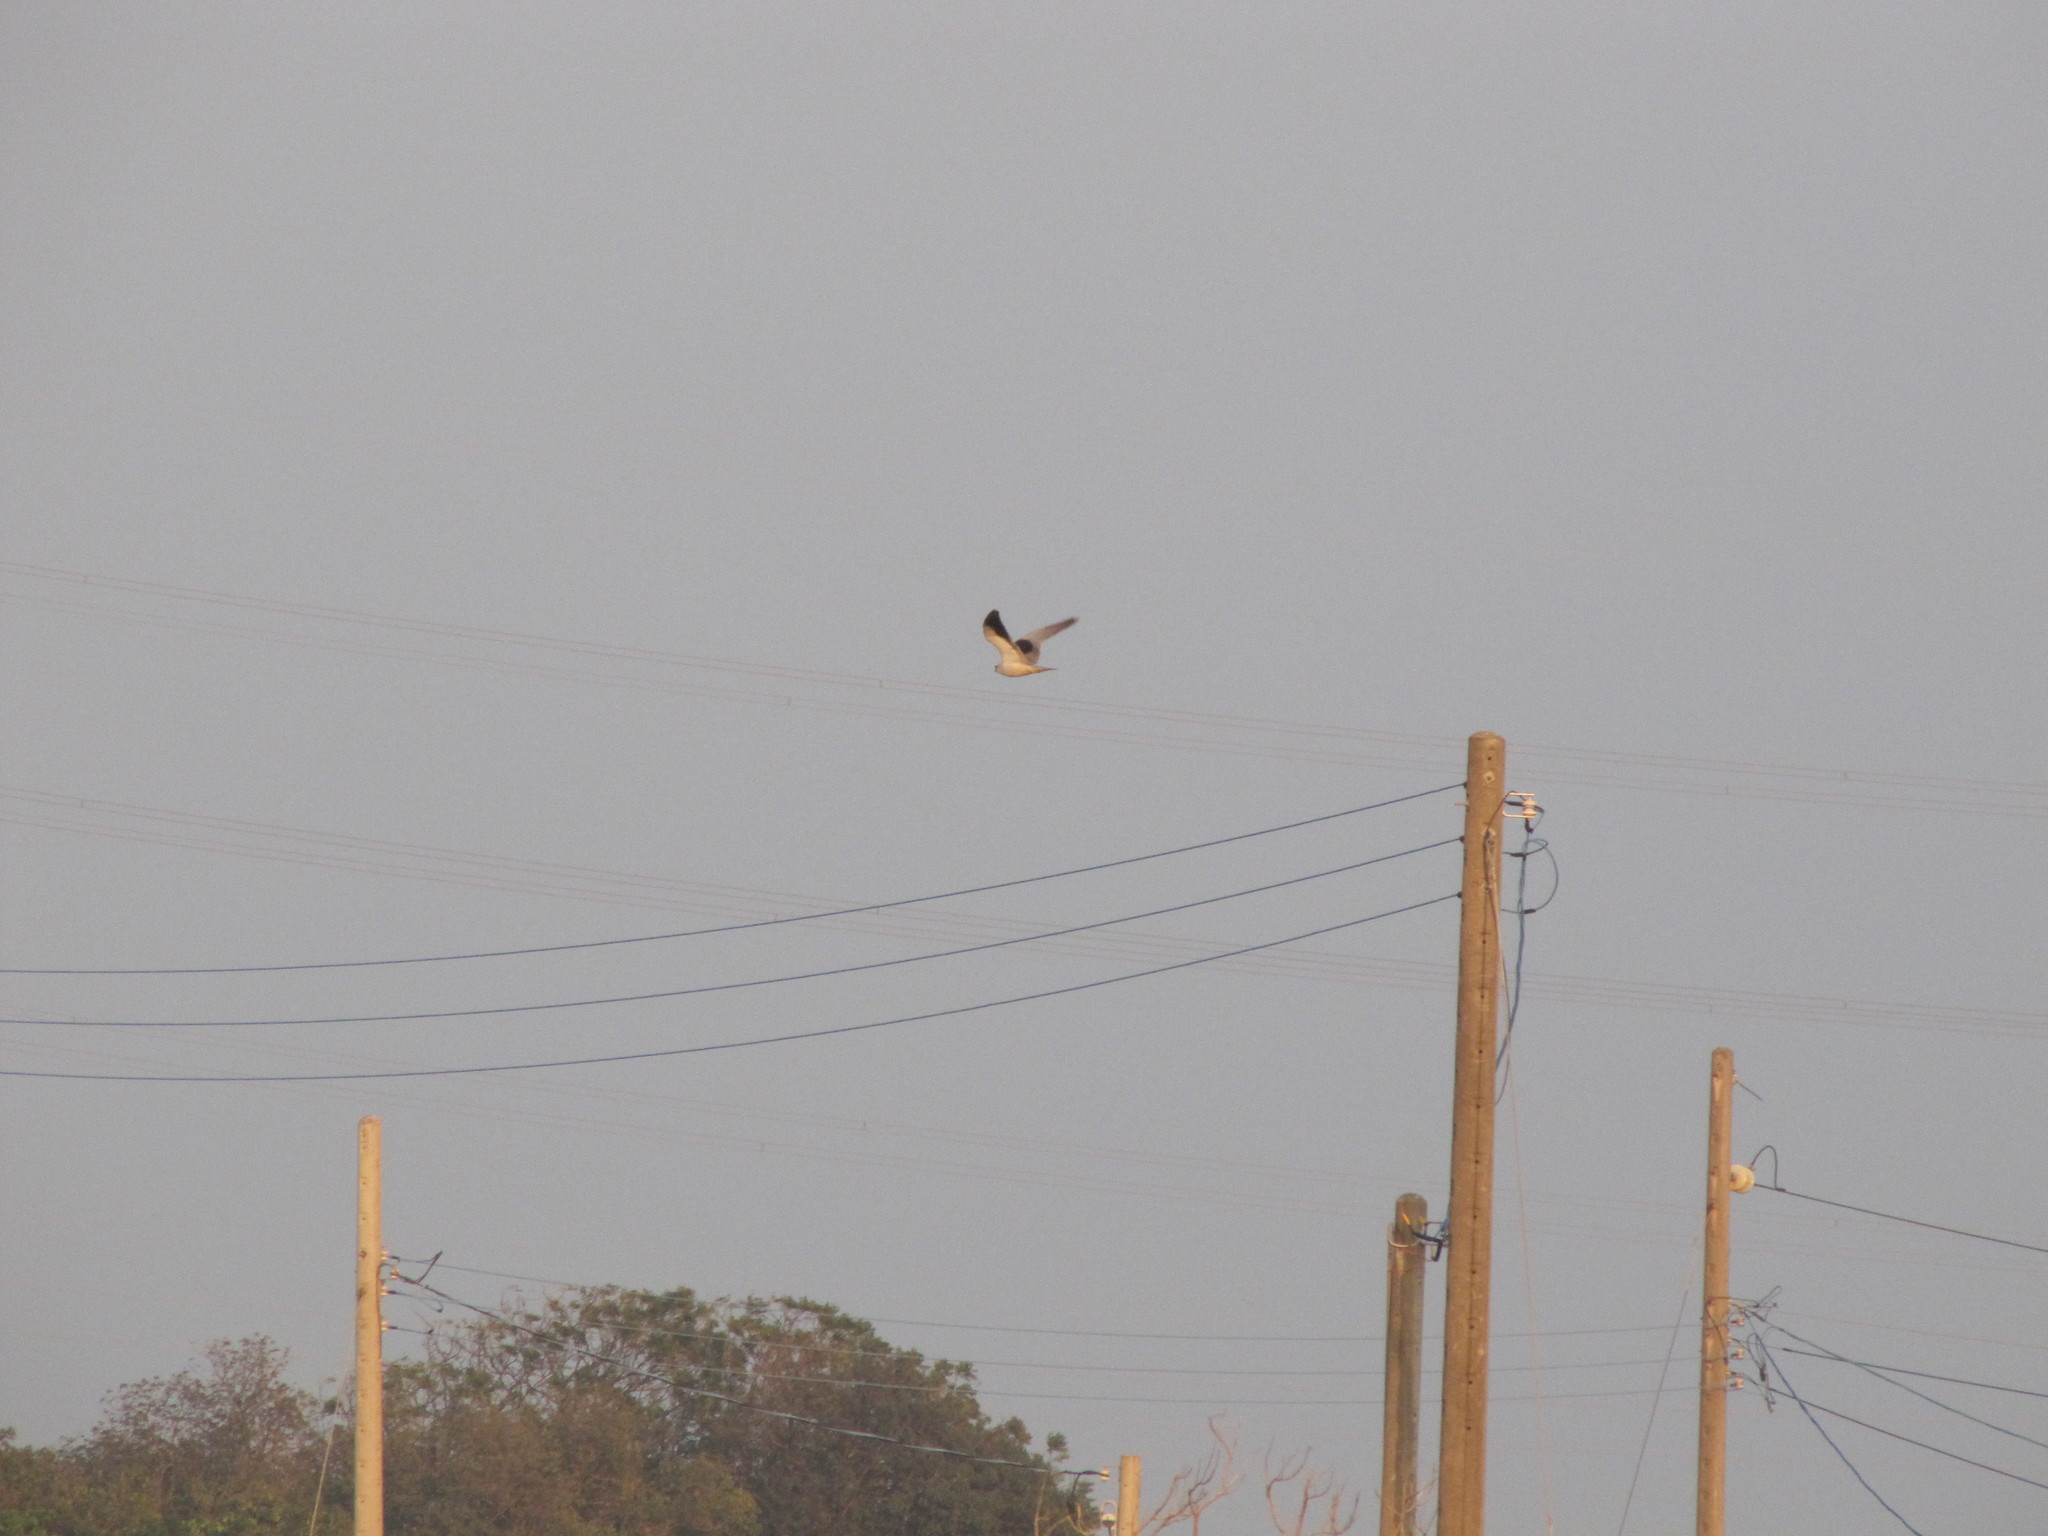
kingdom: Animalia
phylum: Chordata
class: Aves
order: Accipitriformes
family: Accipitridae
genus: Elanus
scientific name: Elanus caeruleus
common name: Black-winged kite
